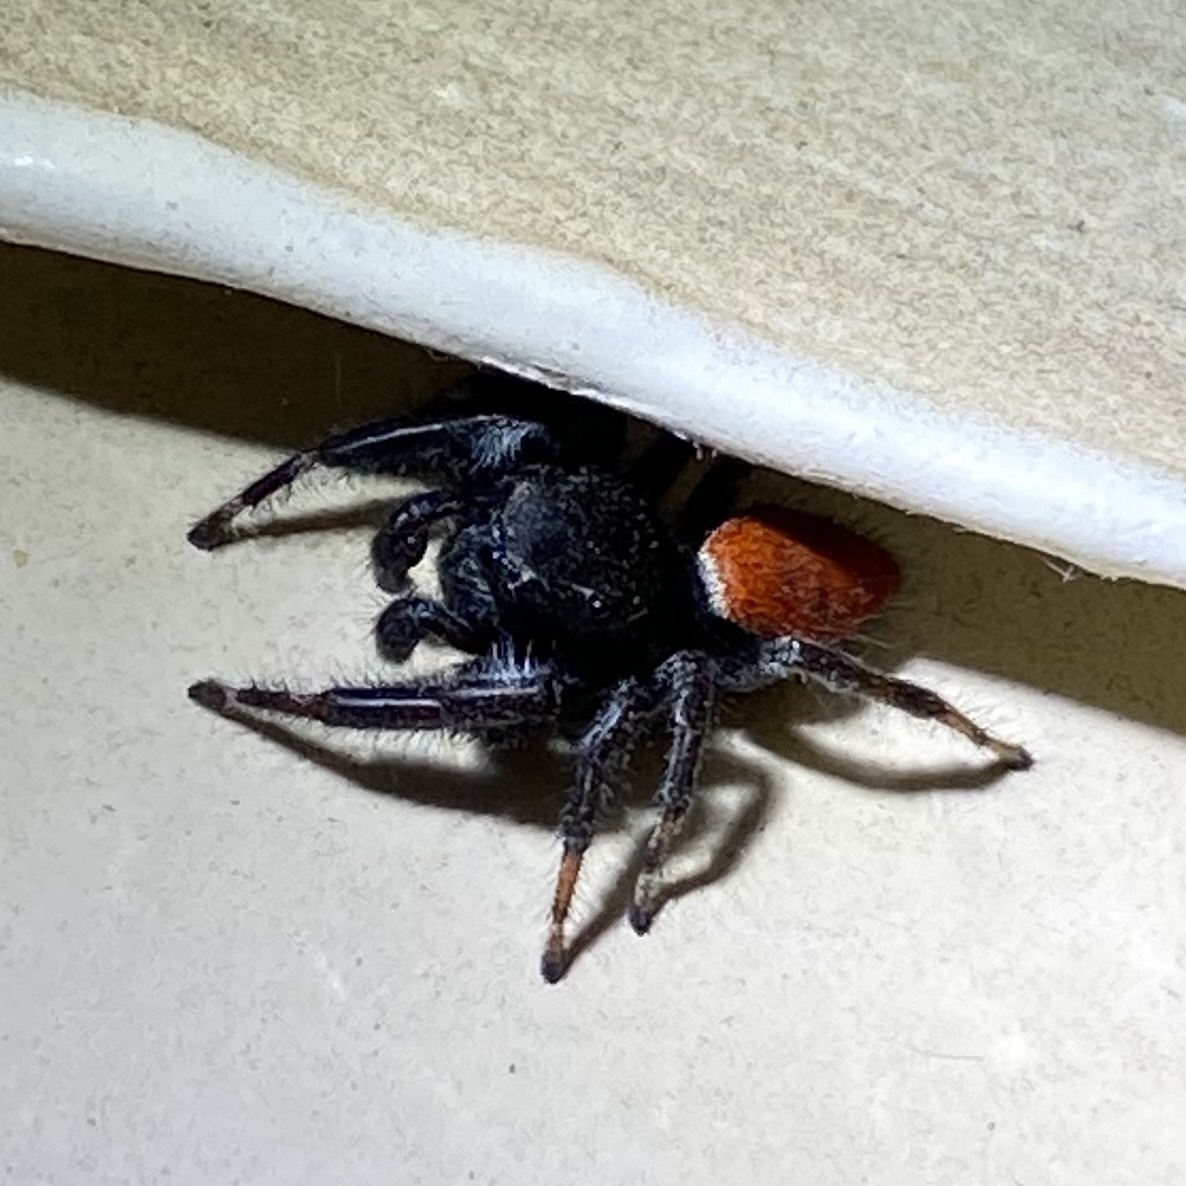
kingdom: Animalia
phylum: Arthropoda
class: Arachnida
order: Araneae
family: Salticidae
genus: Phidippus
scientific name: Phidippus carneus
